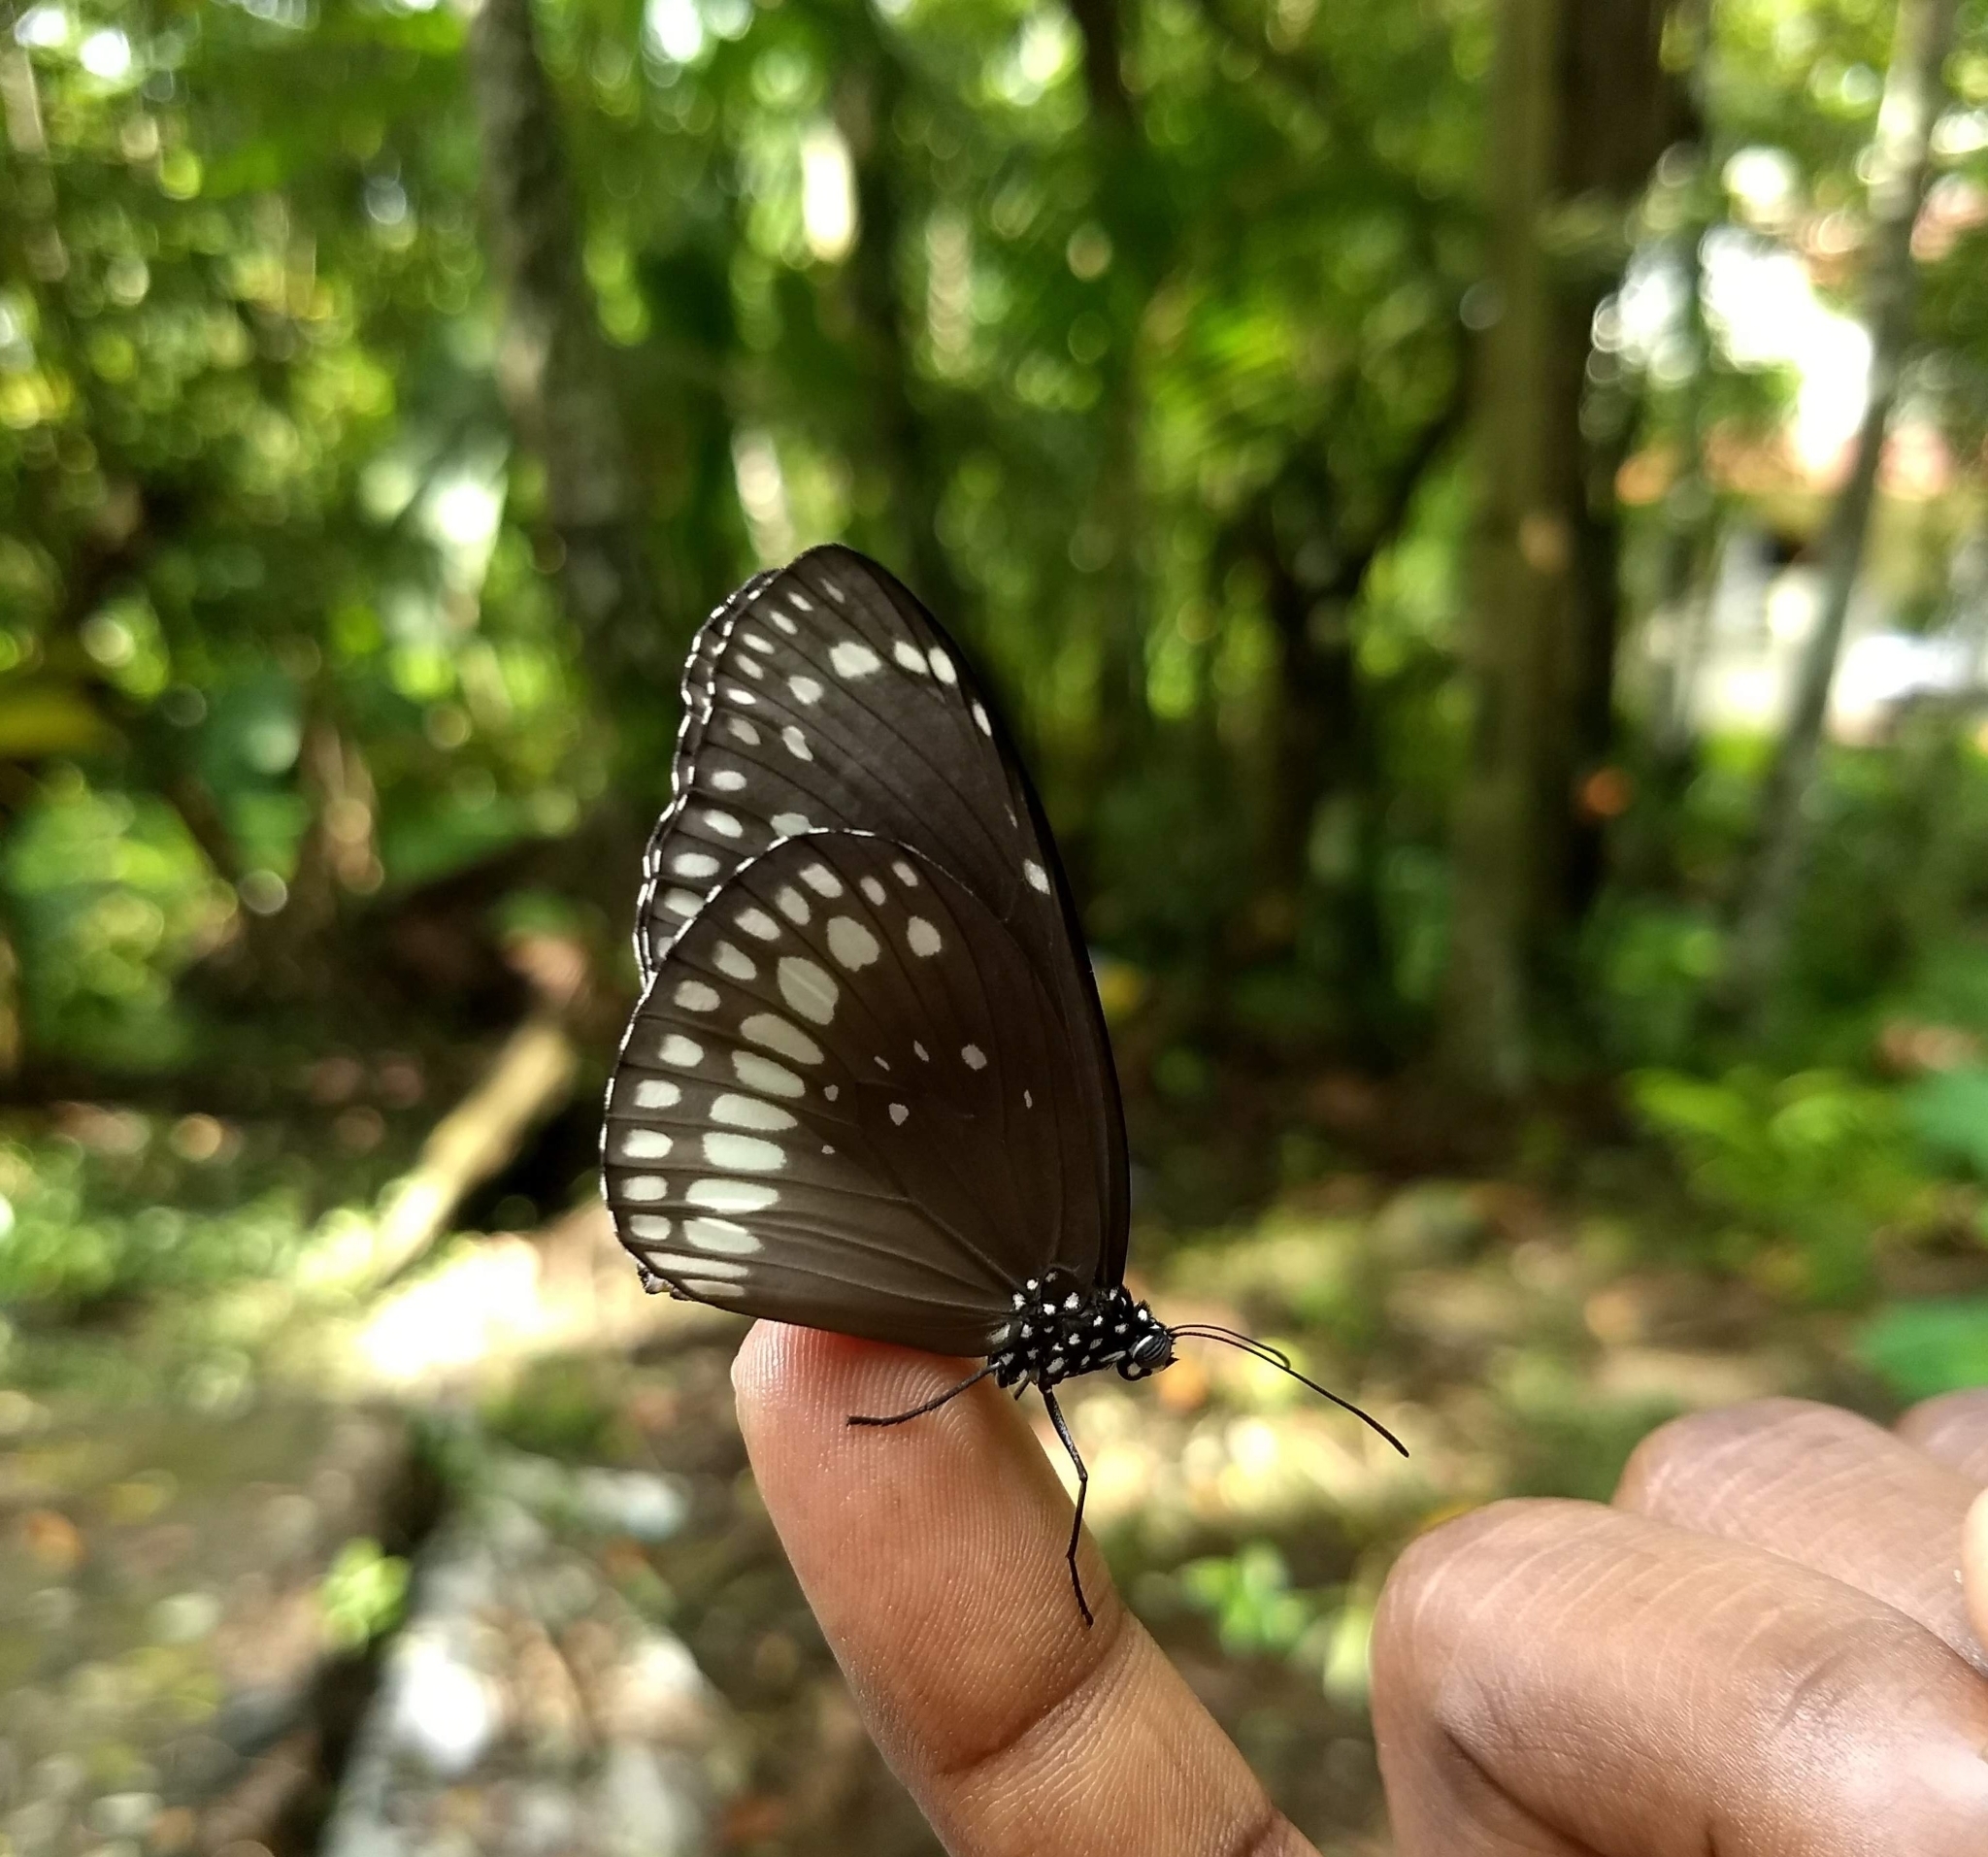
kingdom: Animalia
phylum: Arthropoda
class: Insecta
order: Lepidoptera
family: Nymphalidae
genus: Euploea
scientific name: Euploea core
